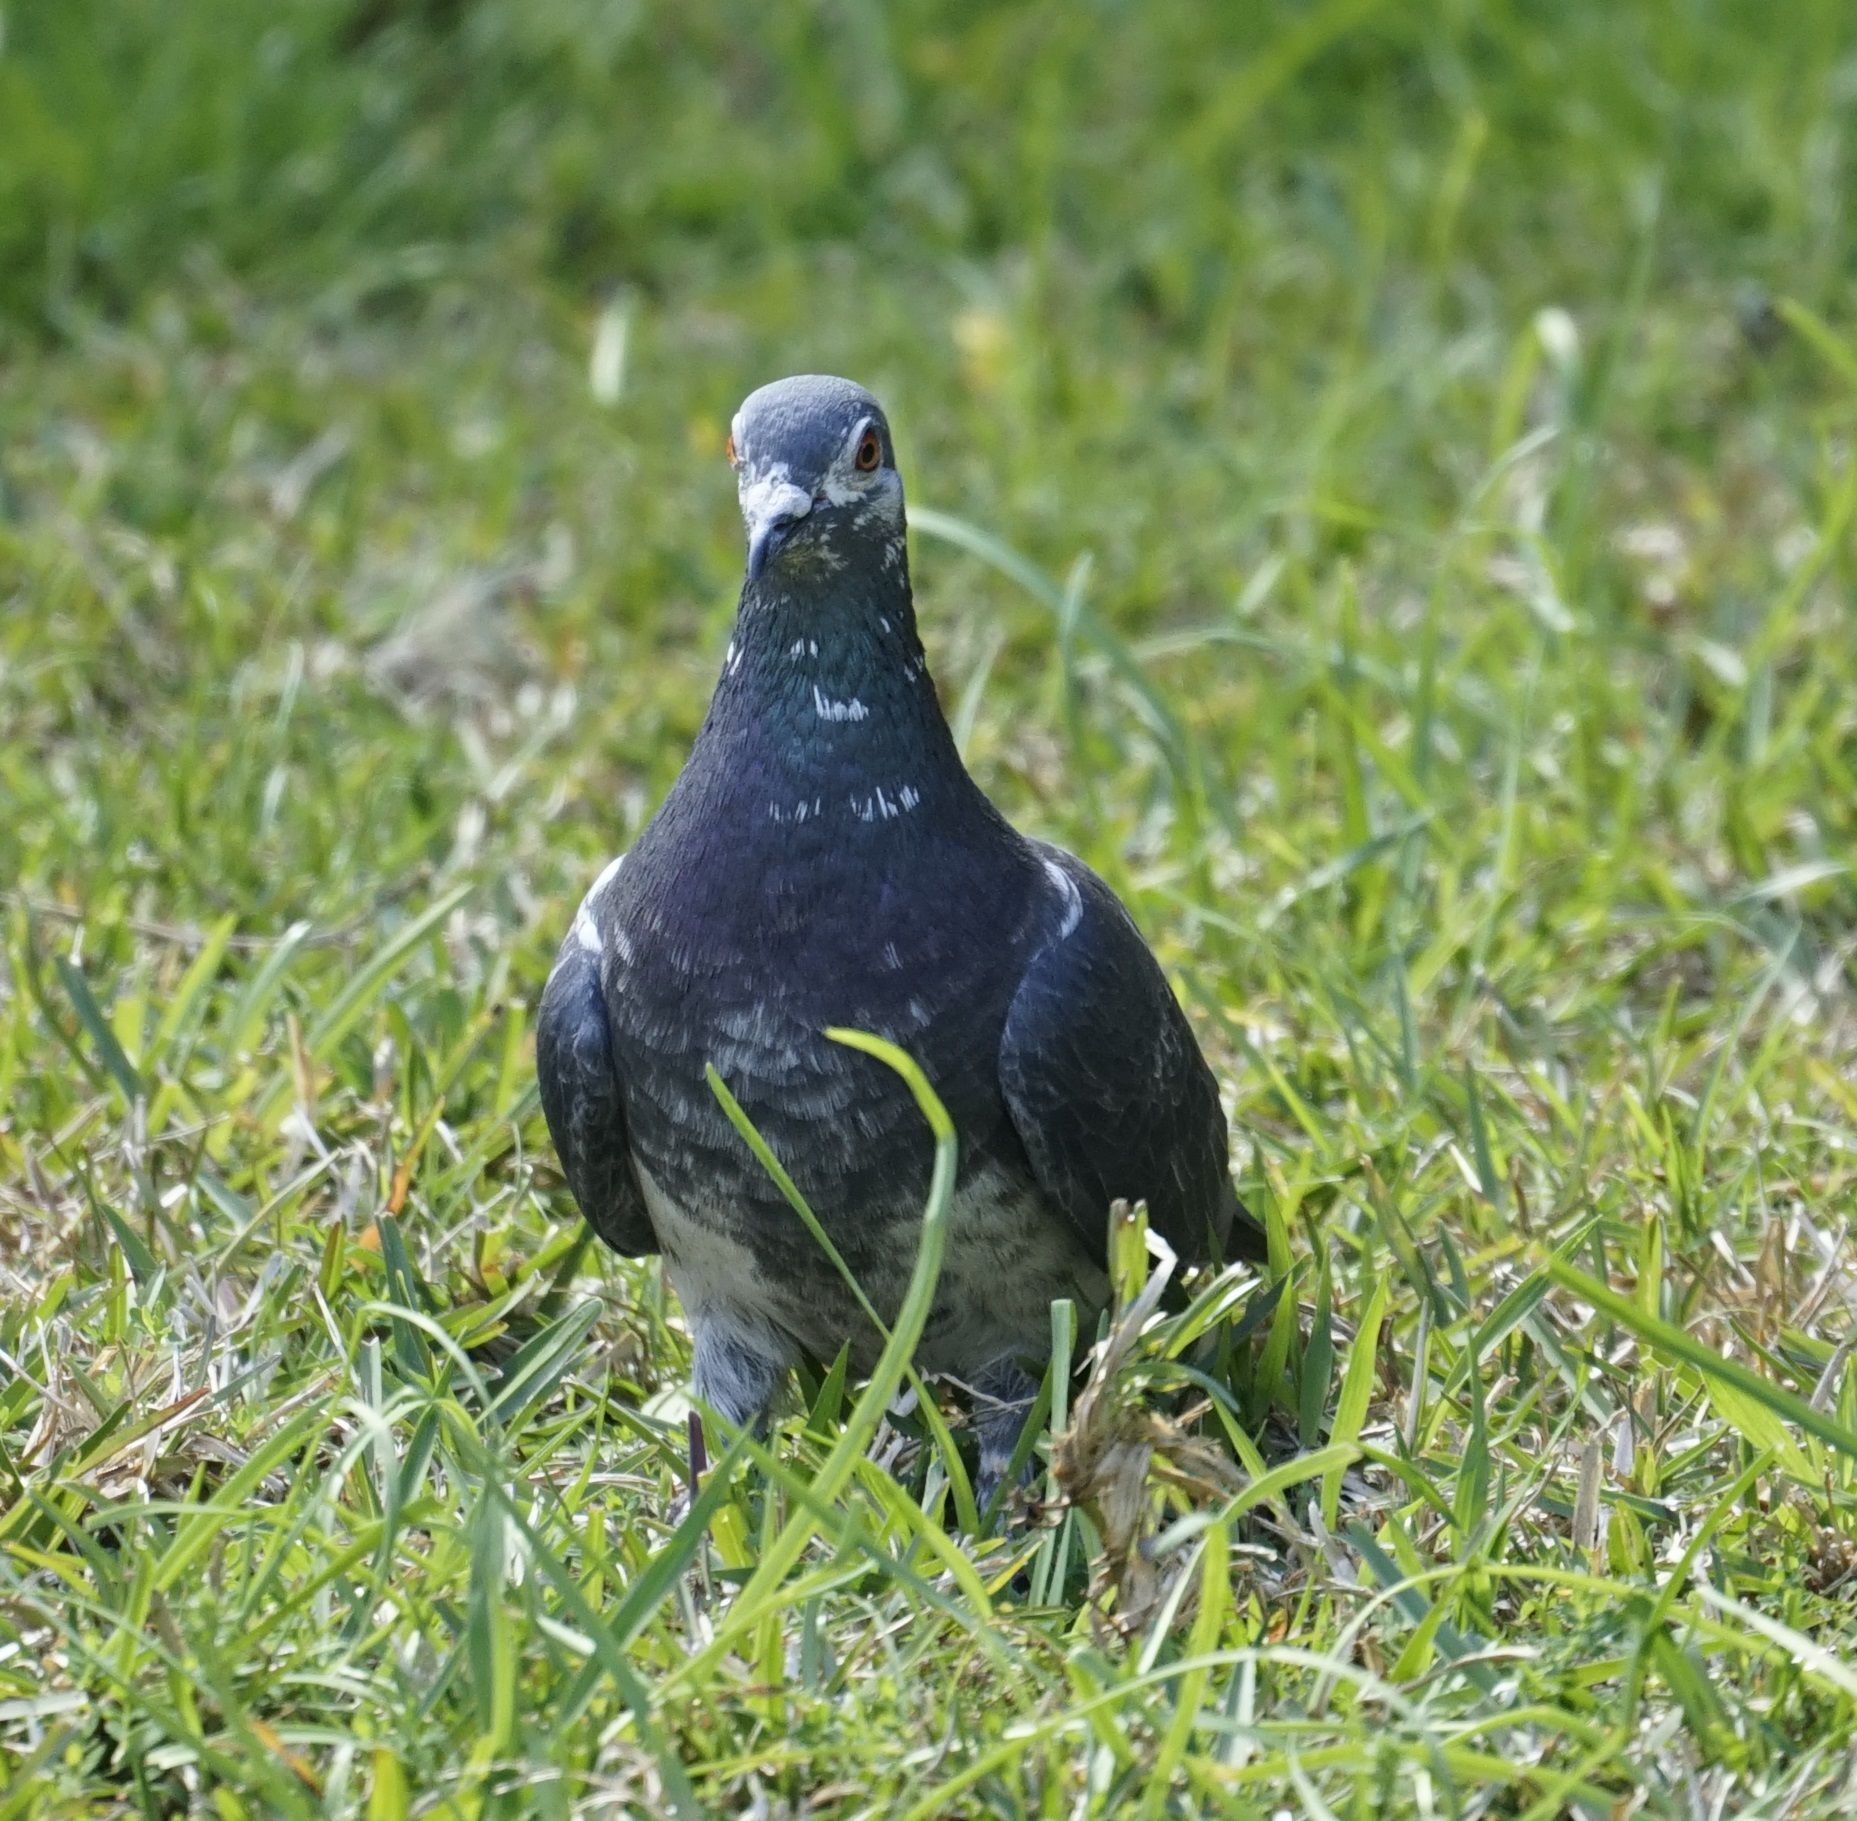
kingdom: Animalia
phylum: Chordata
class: Aves
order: Columbiformes
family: Columbidae
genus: Columba
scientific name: Columba livia
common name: Rock pigeon
